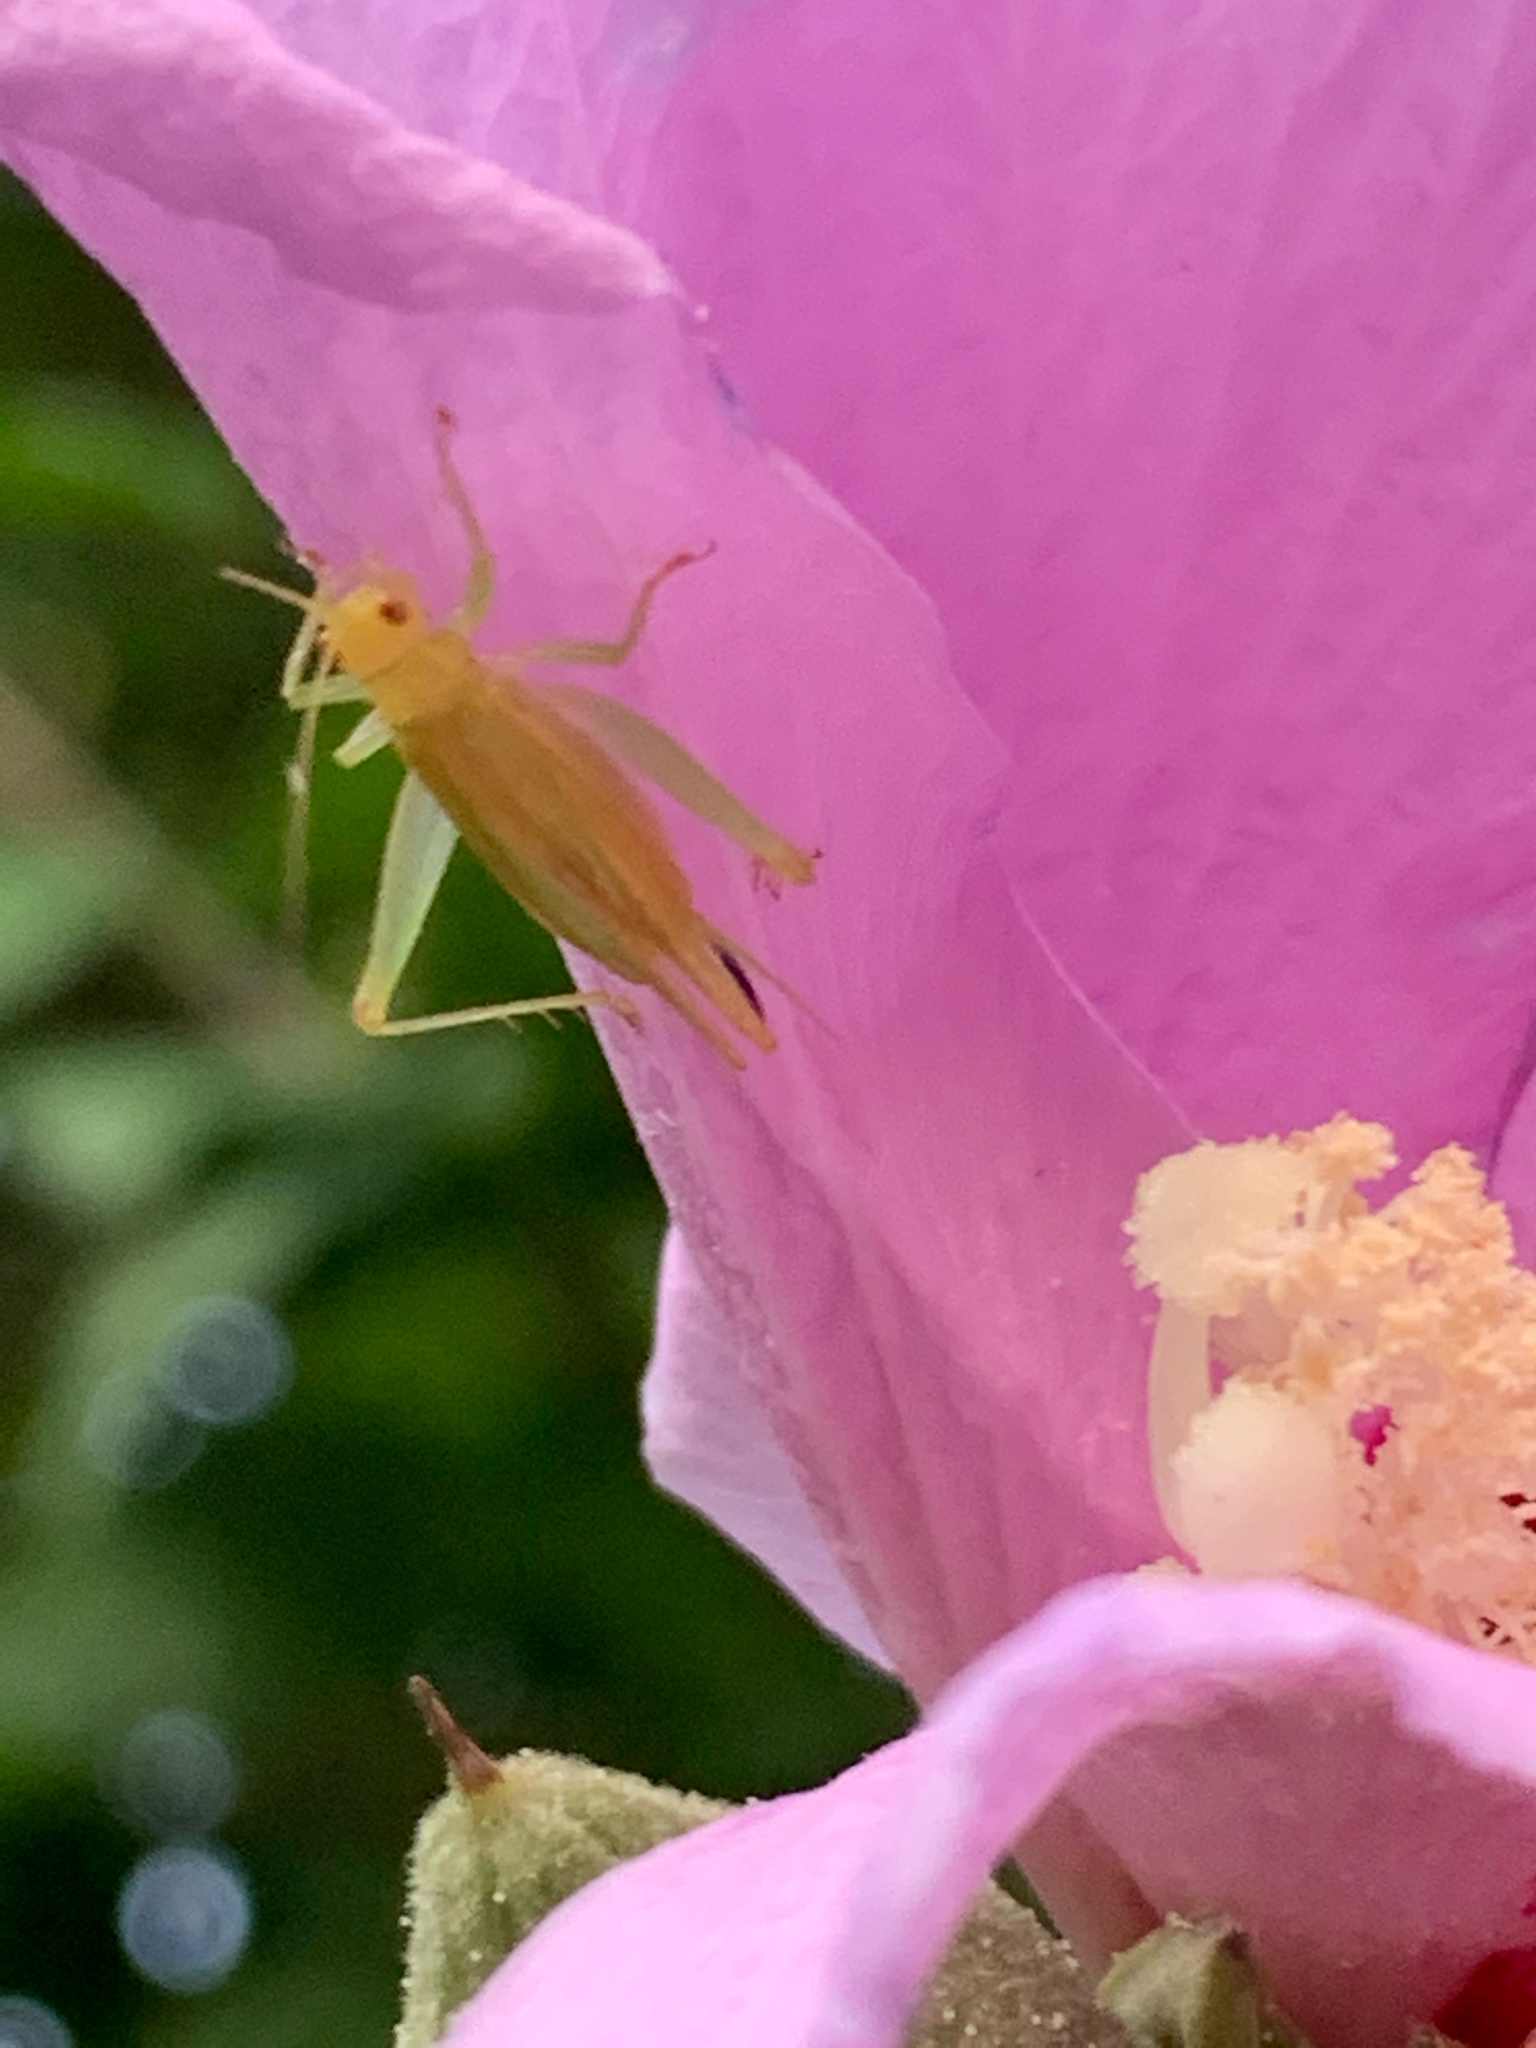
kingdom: Animalia
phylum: Arthropoda
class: Insecta
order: Orthoptera
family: Trigonidiidae
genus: Cyrtoxipha
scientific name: Cyrtoxipha columbiana
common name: Columbian trig
